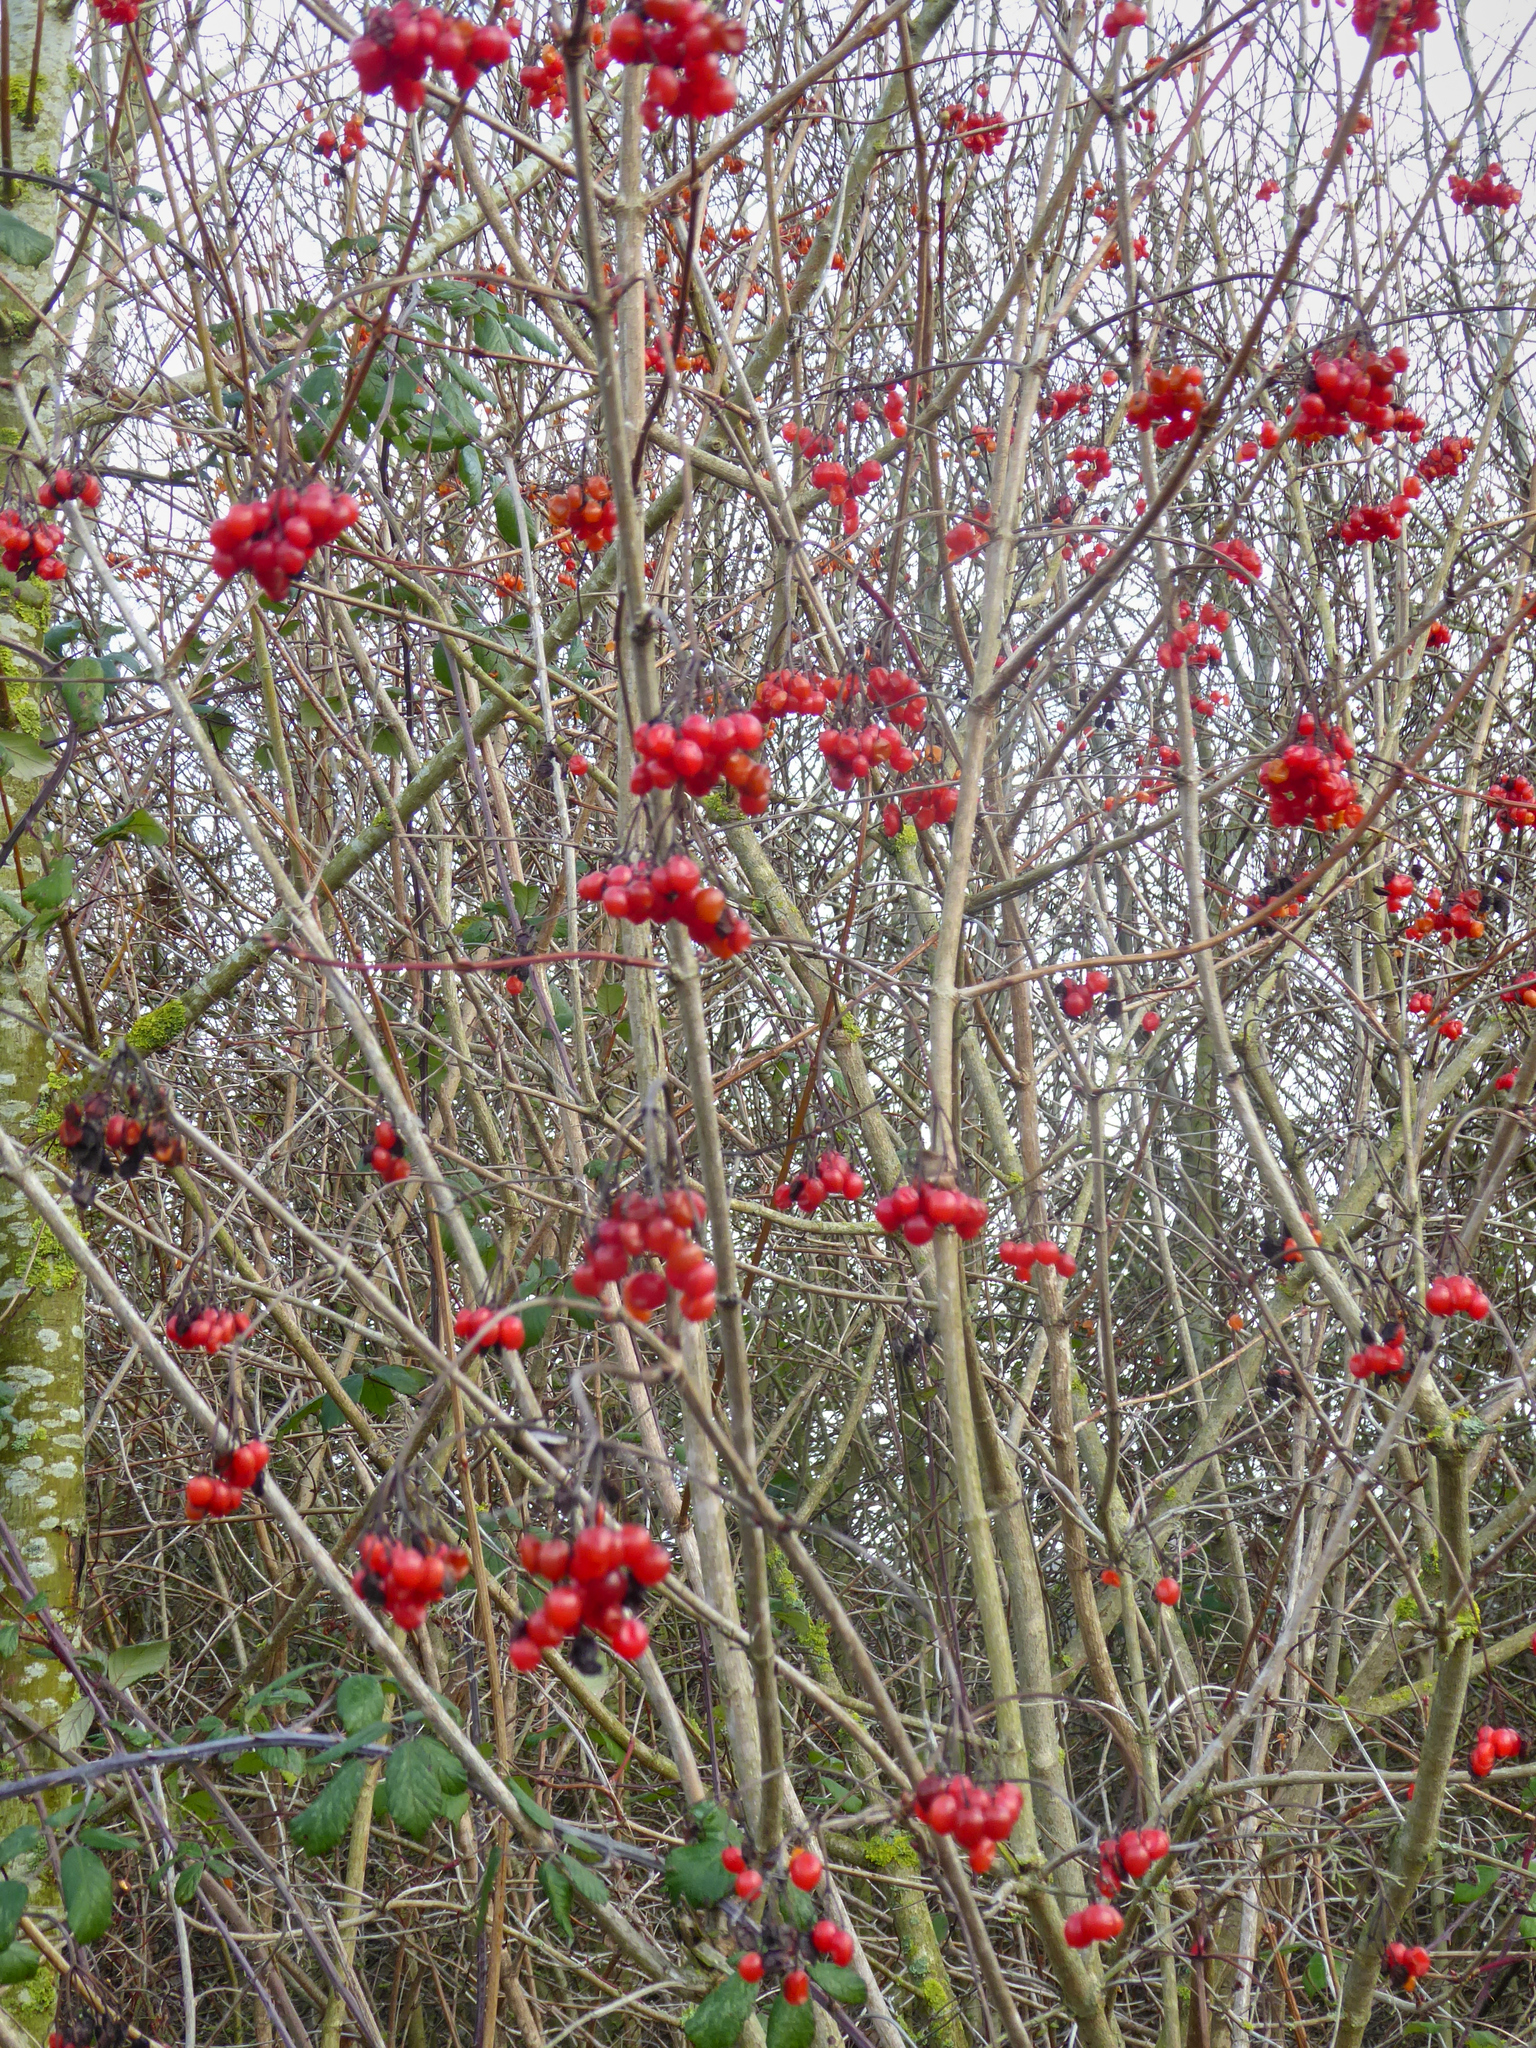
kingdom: Plantae
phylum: Tracheophyta
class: Magnoliopsida
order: Dipsacales
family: Viburnaceae
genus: Viburnum
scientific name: Viburnum opulus
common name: Guelder-rose
